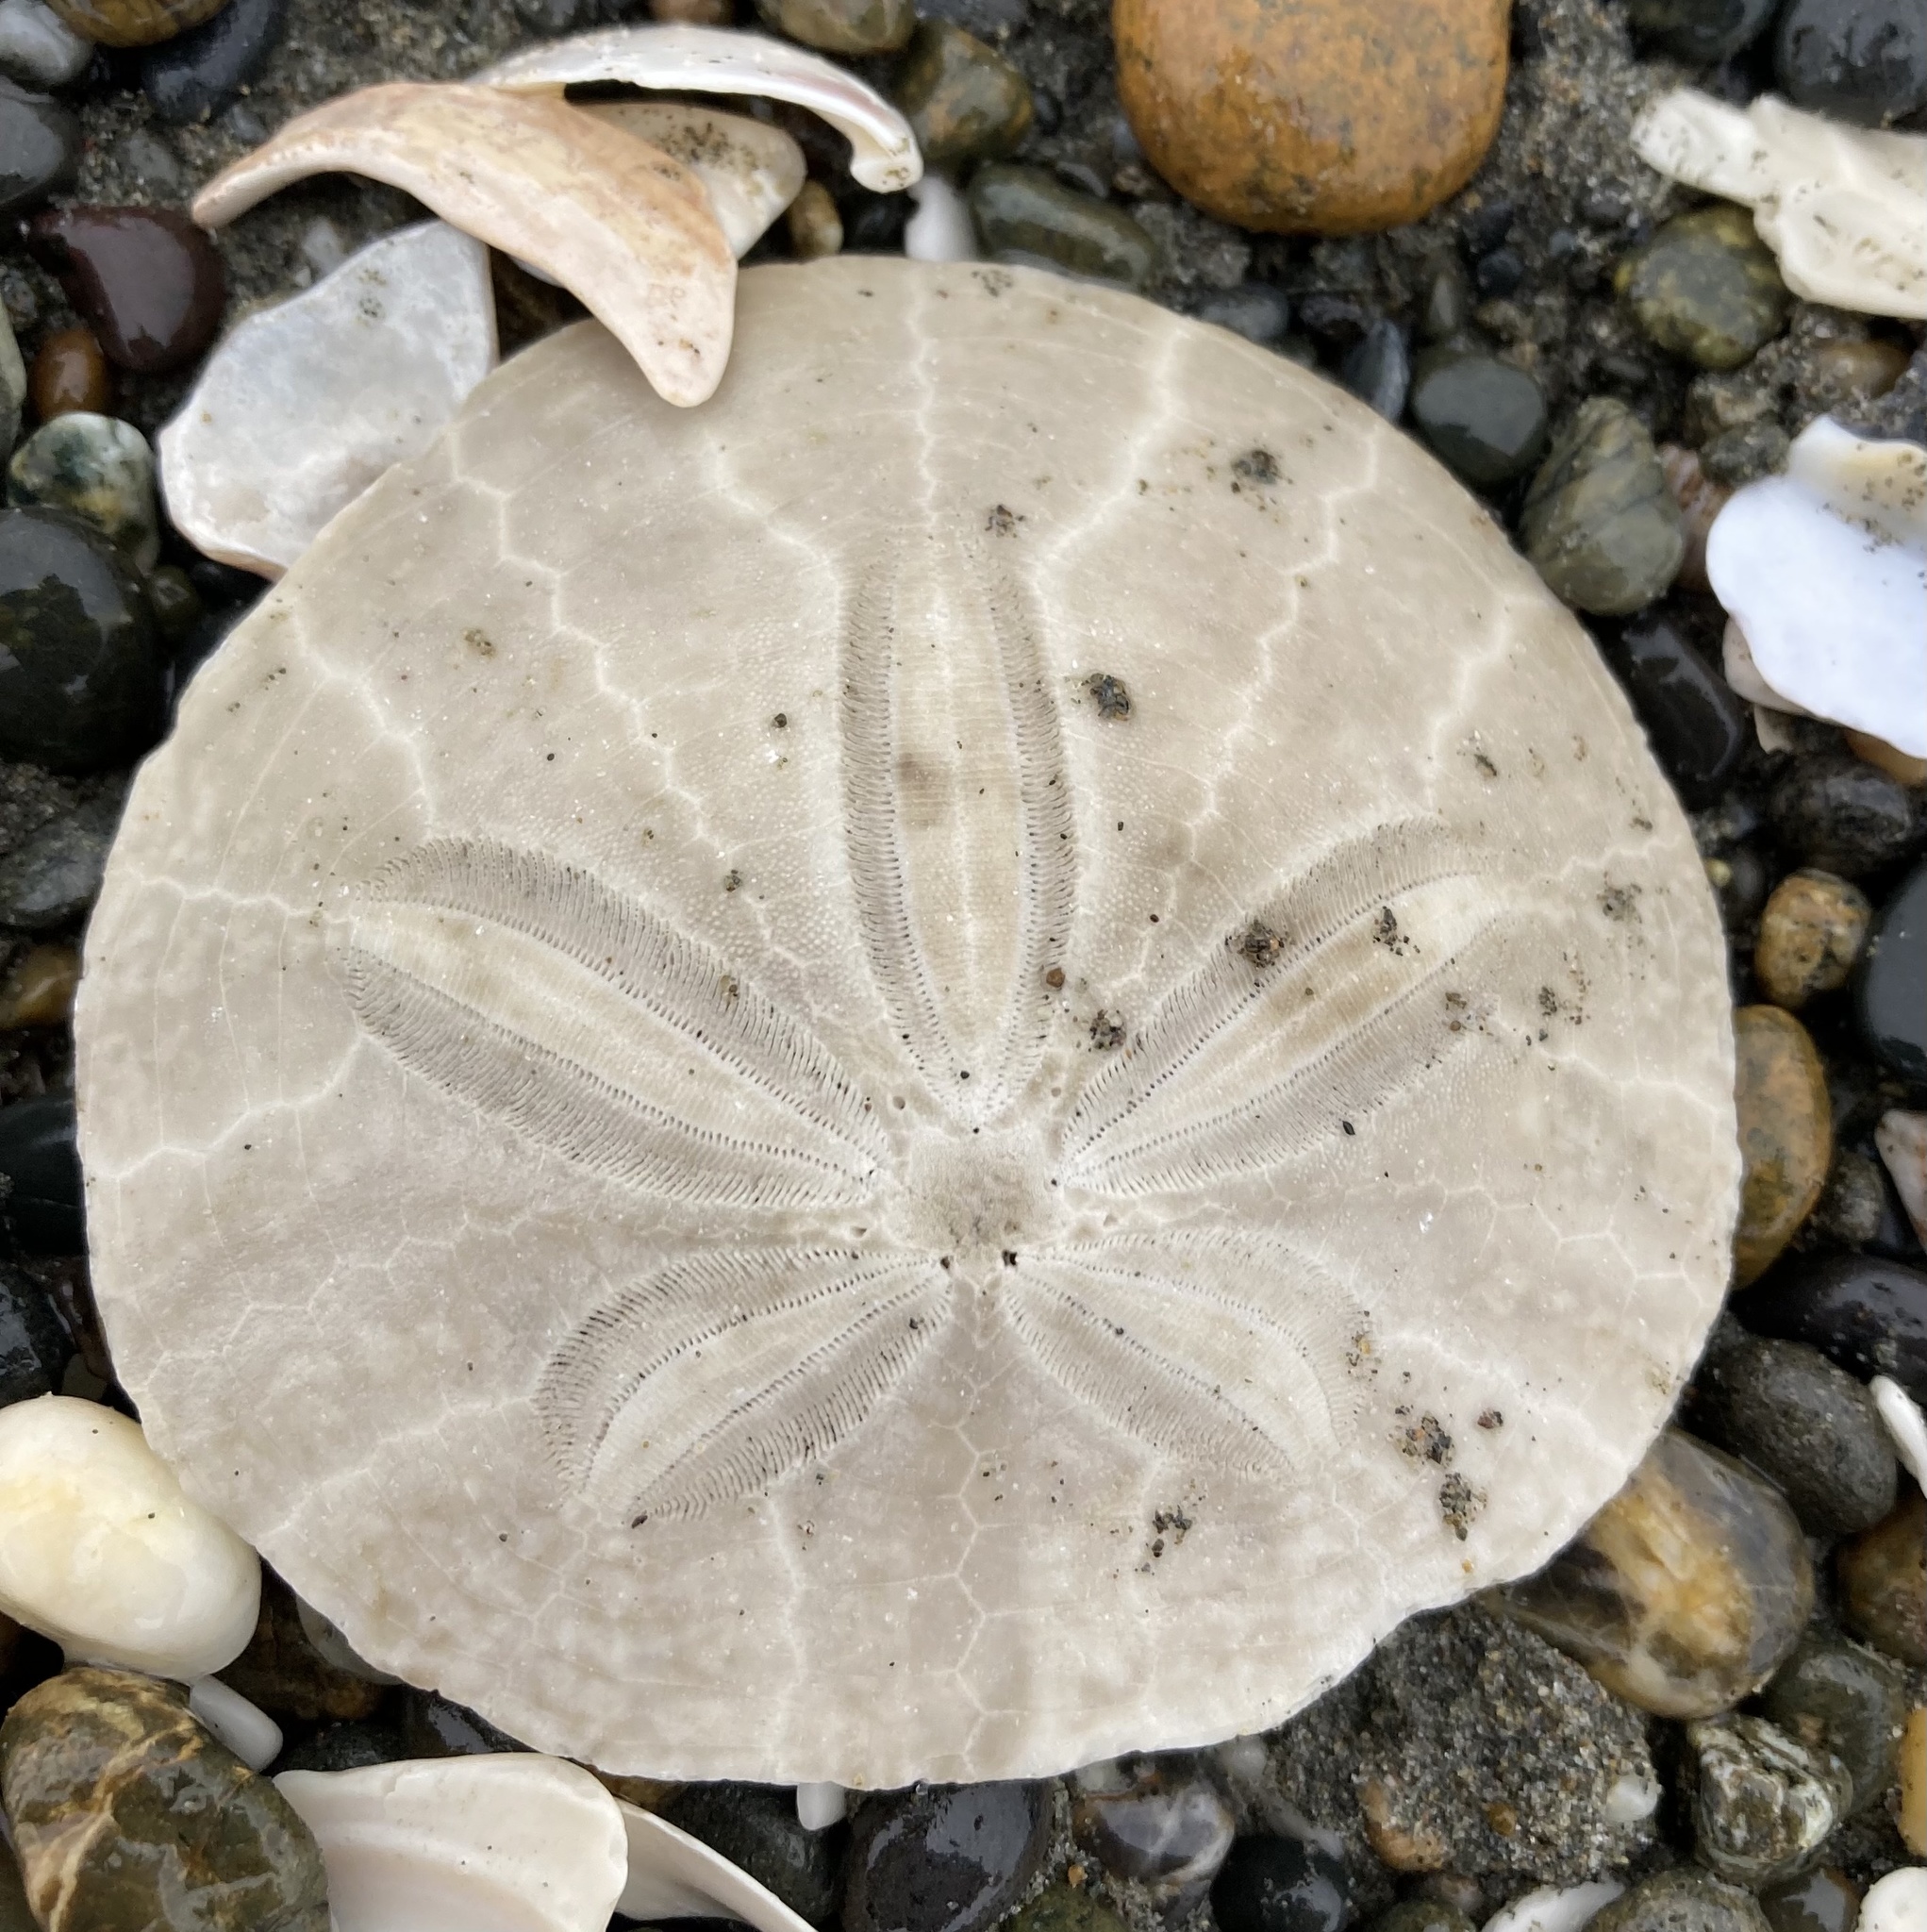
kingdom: Animalia
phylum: Echinodermata
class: Echinoidea
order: Echinolampadacea
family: Dendrasteridae
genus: Dendraster
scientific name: Dendraster excentricus
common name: Eccentric sand dollar sea urchin
